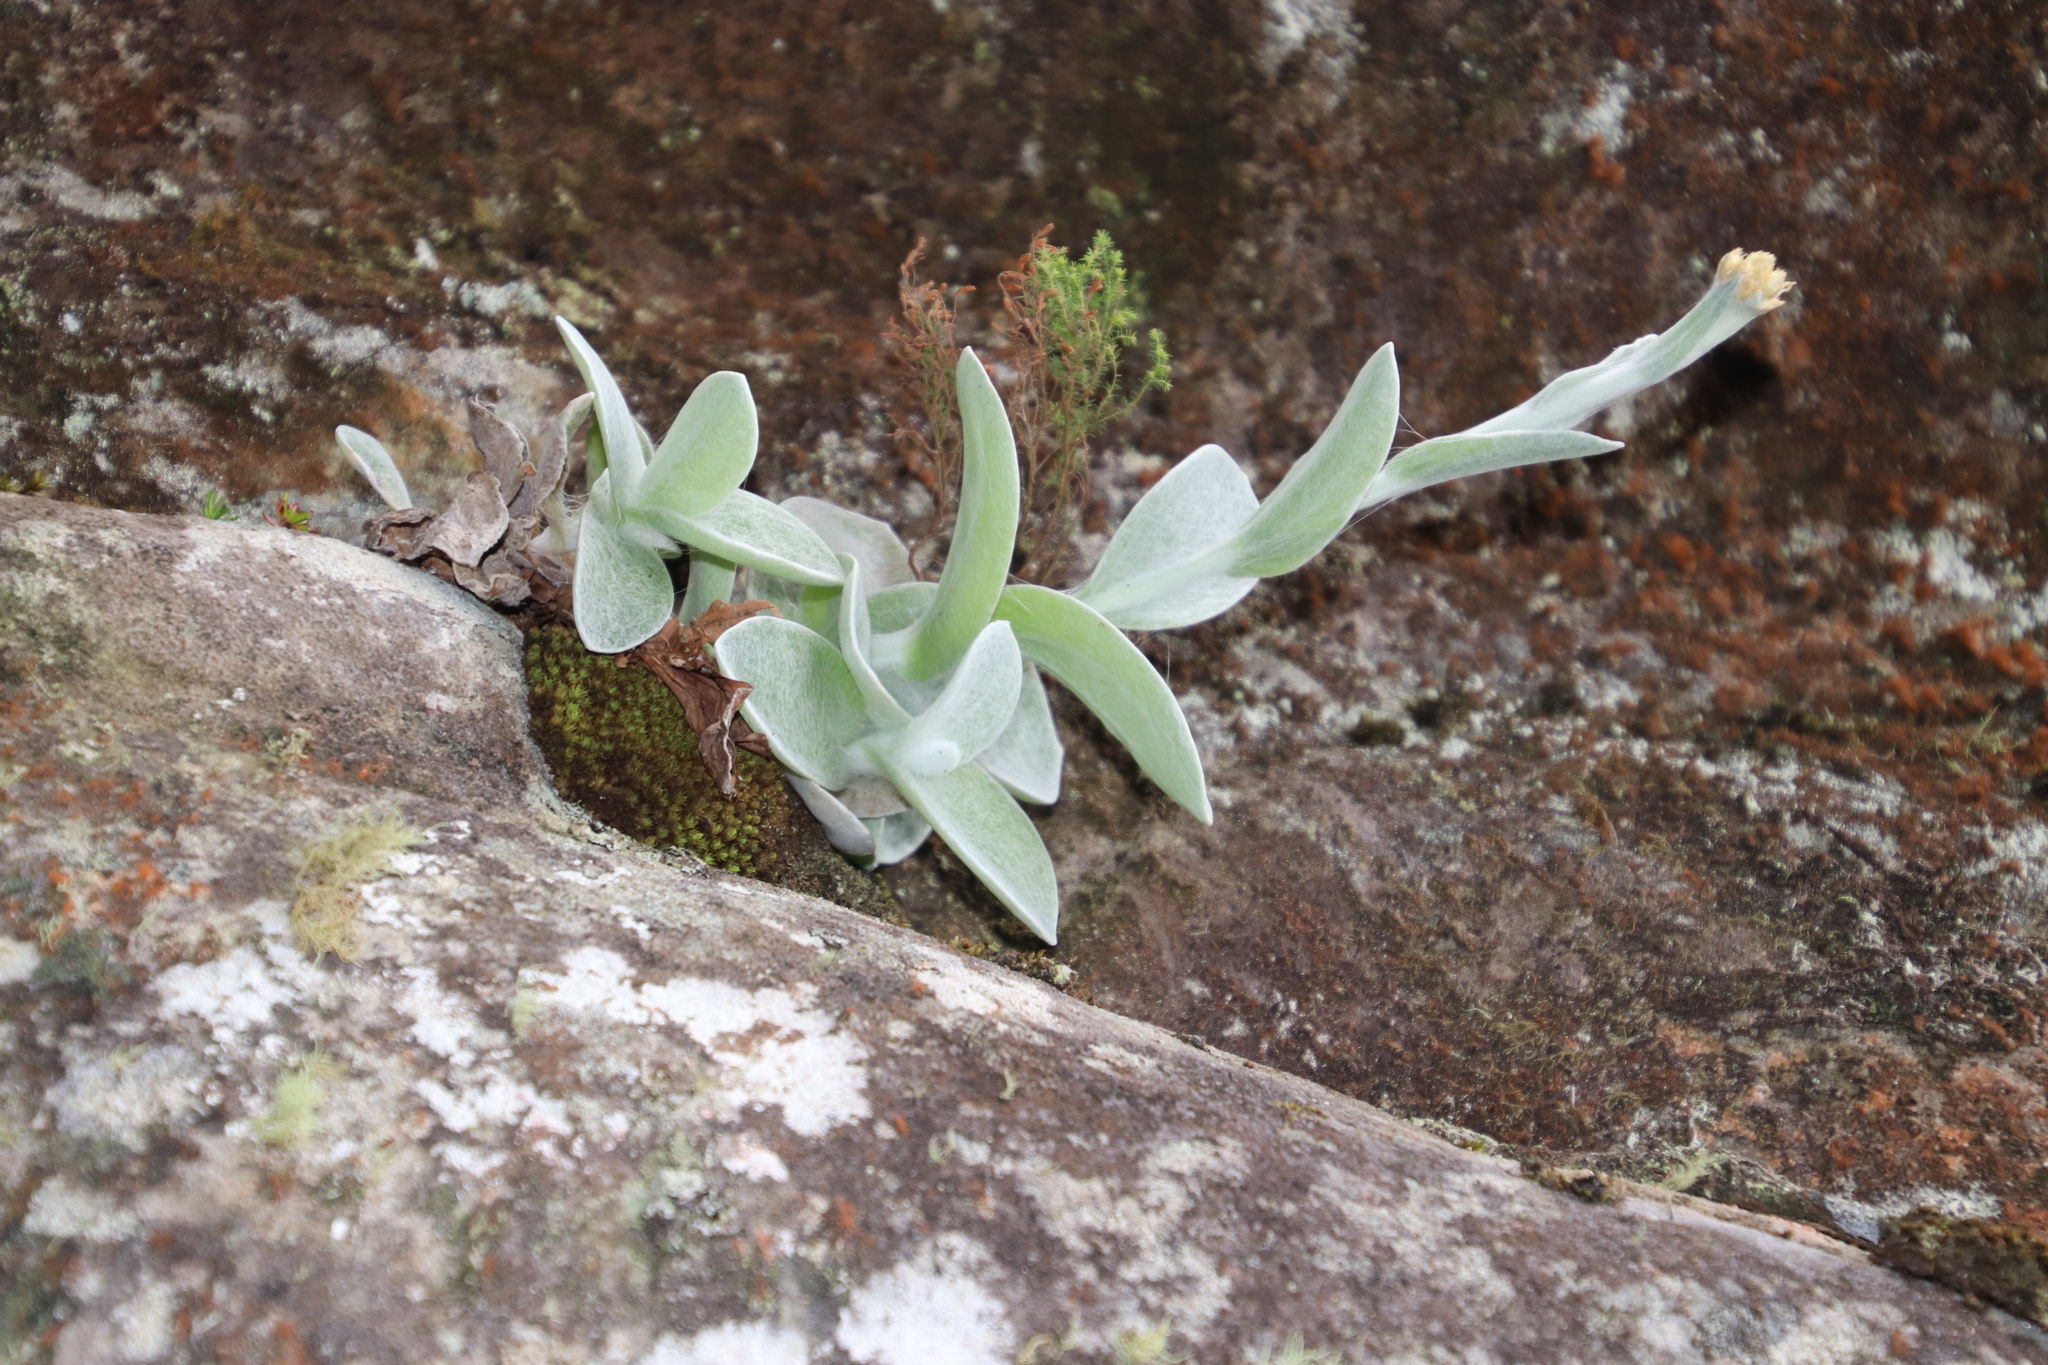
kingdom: Plantae
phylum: Tracheophyta
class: Magnoliopsida
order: Asterales
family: Asteraceae
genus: Helichrysum
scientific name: Helichrysum grandiflorum
